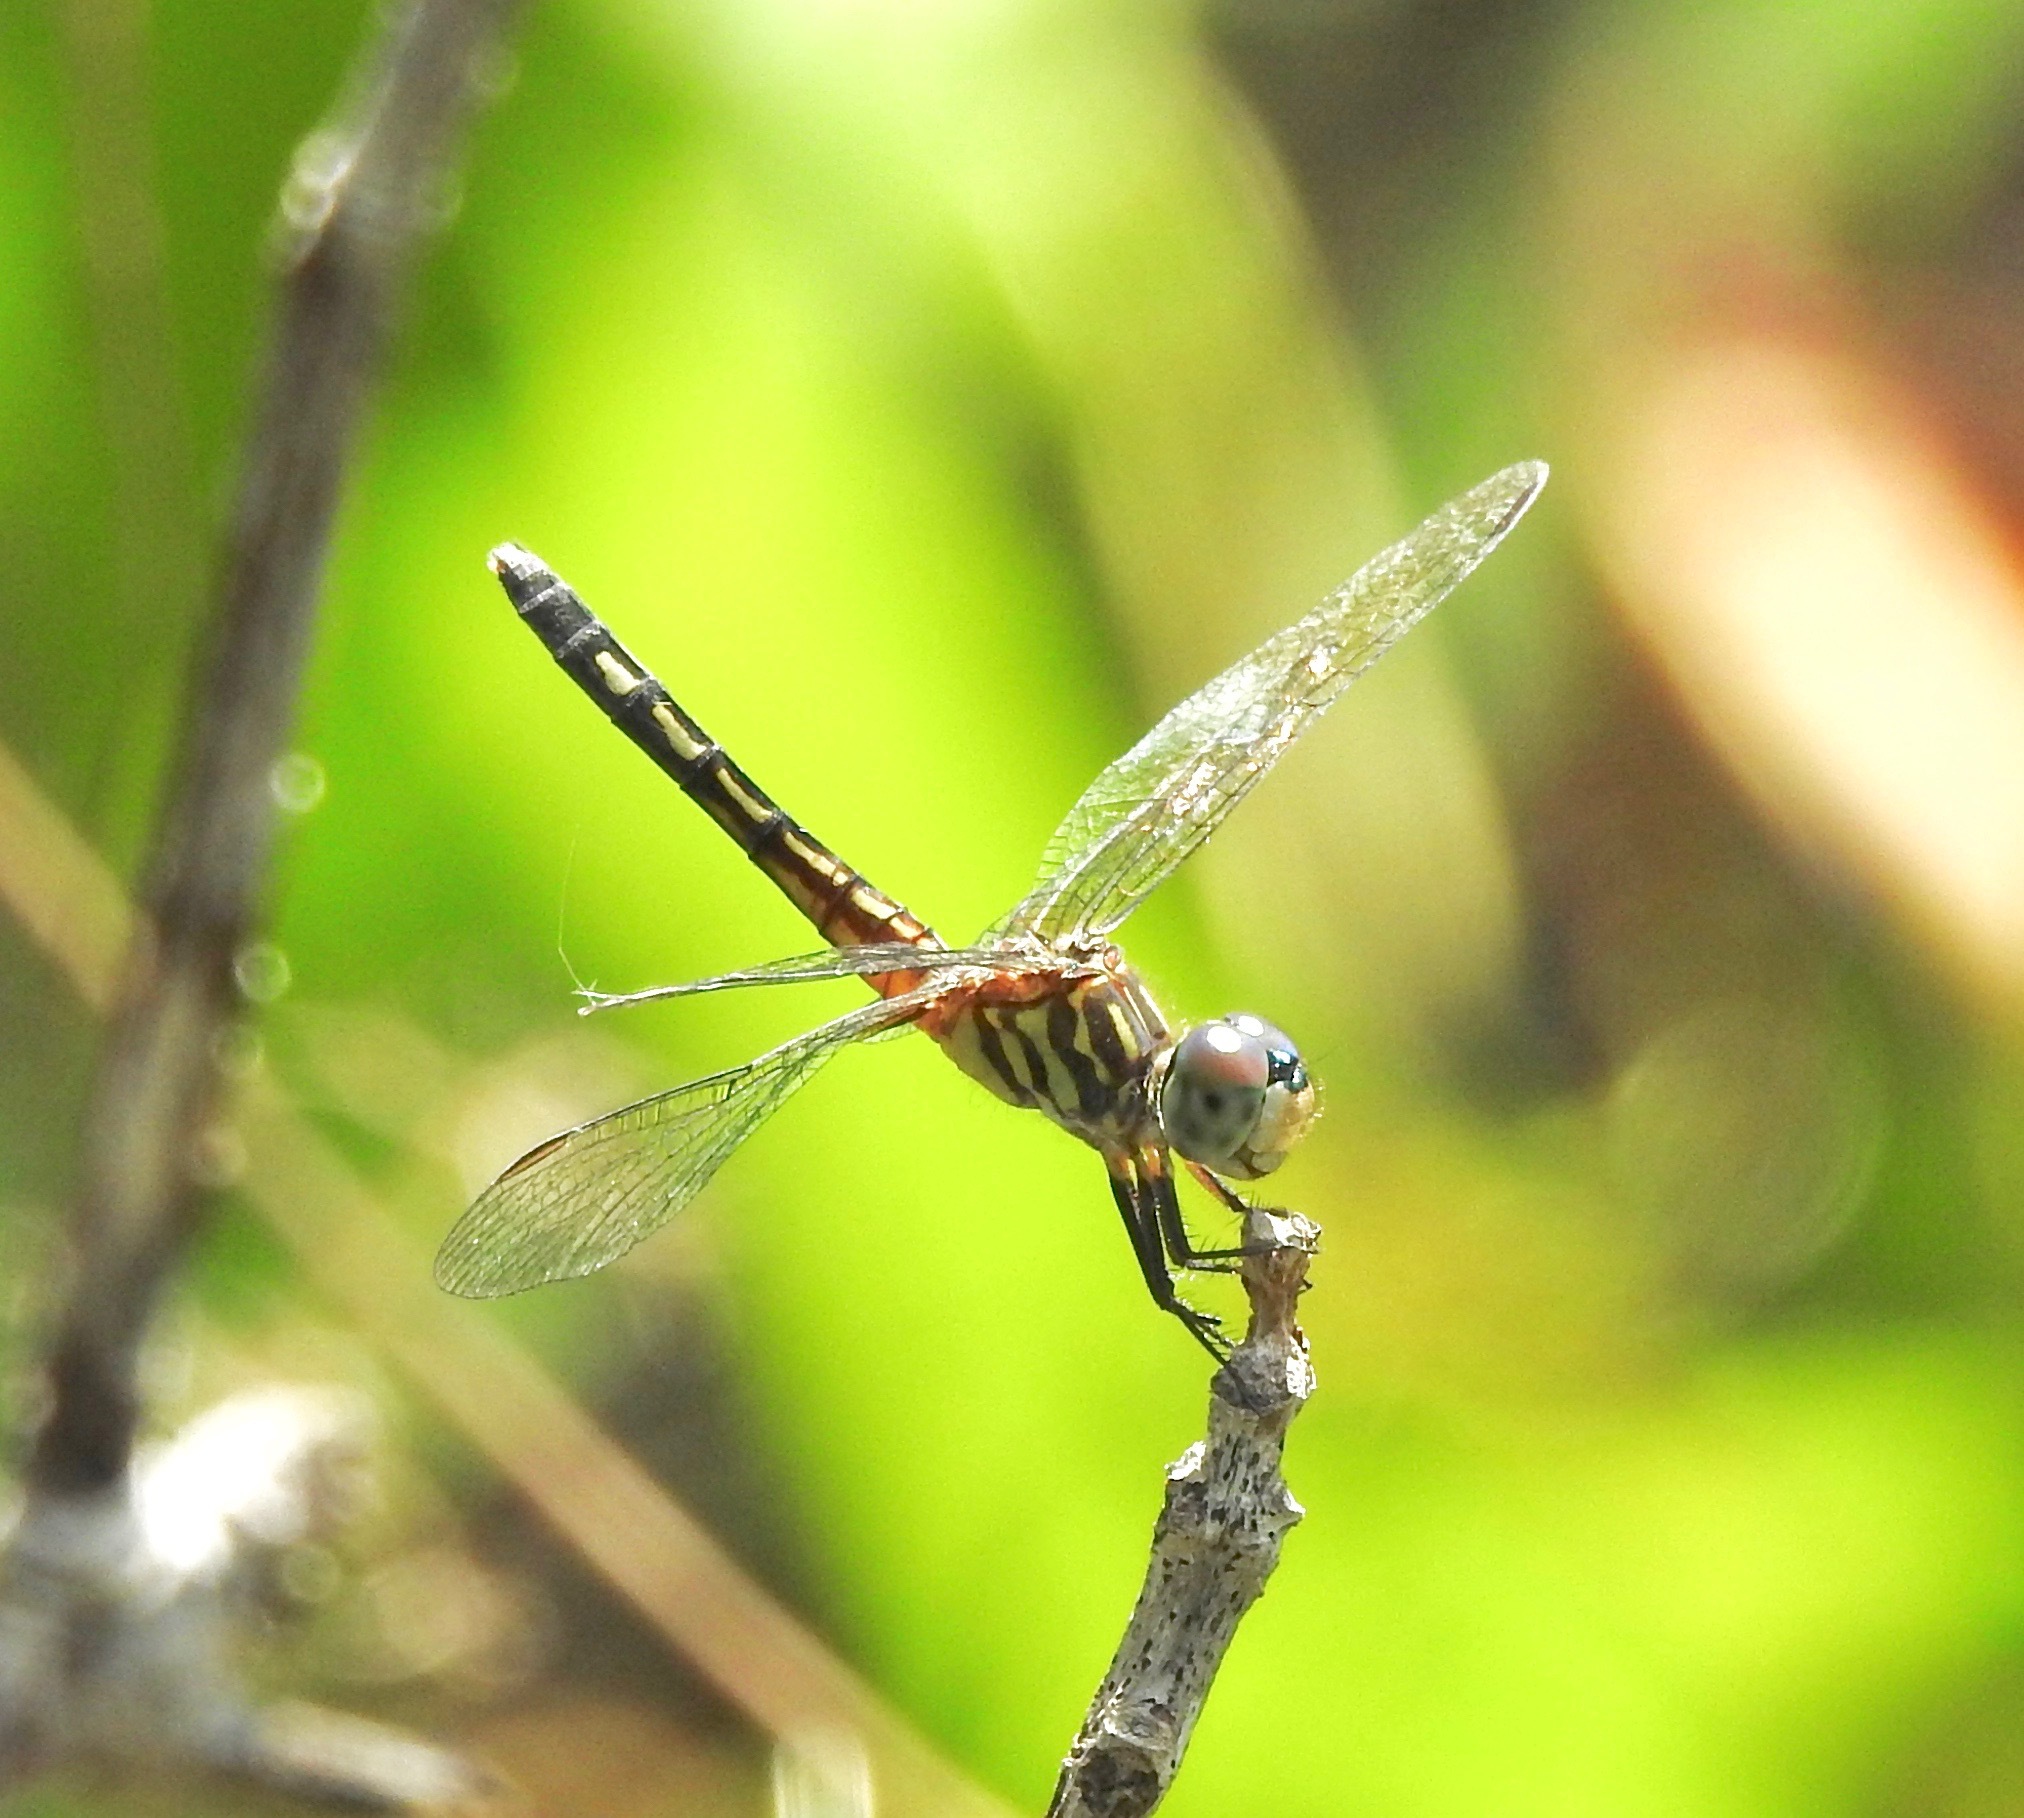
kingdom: Animalia
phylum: Arthropoda
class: Insecta
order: Odonata
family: Libellulidae
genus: Pachydiplax
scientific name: Pachydiplax longipennis
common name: Blue dasher
